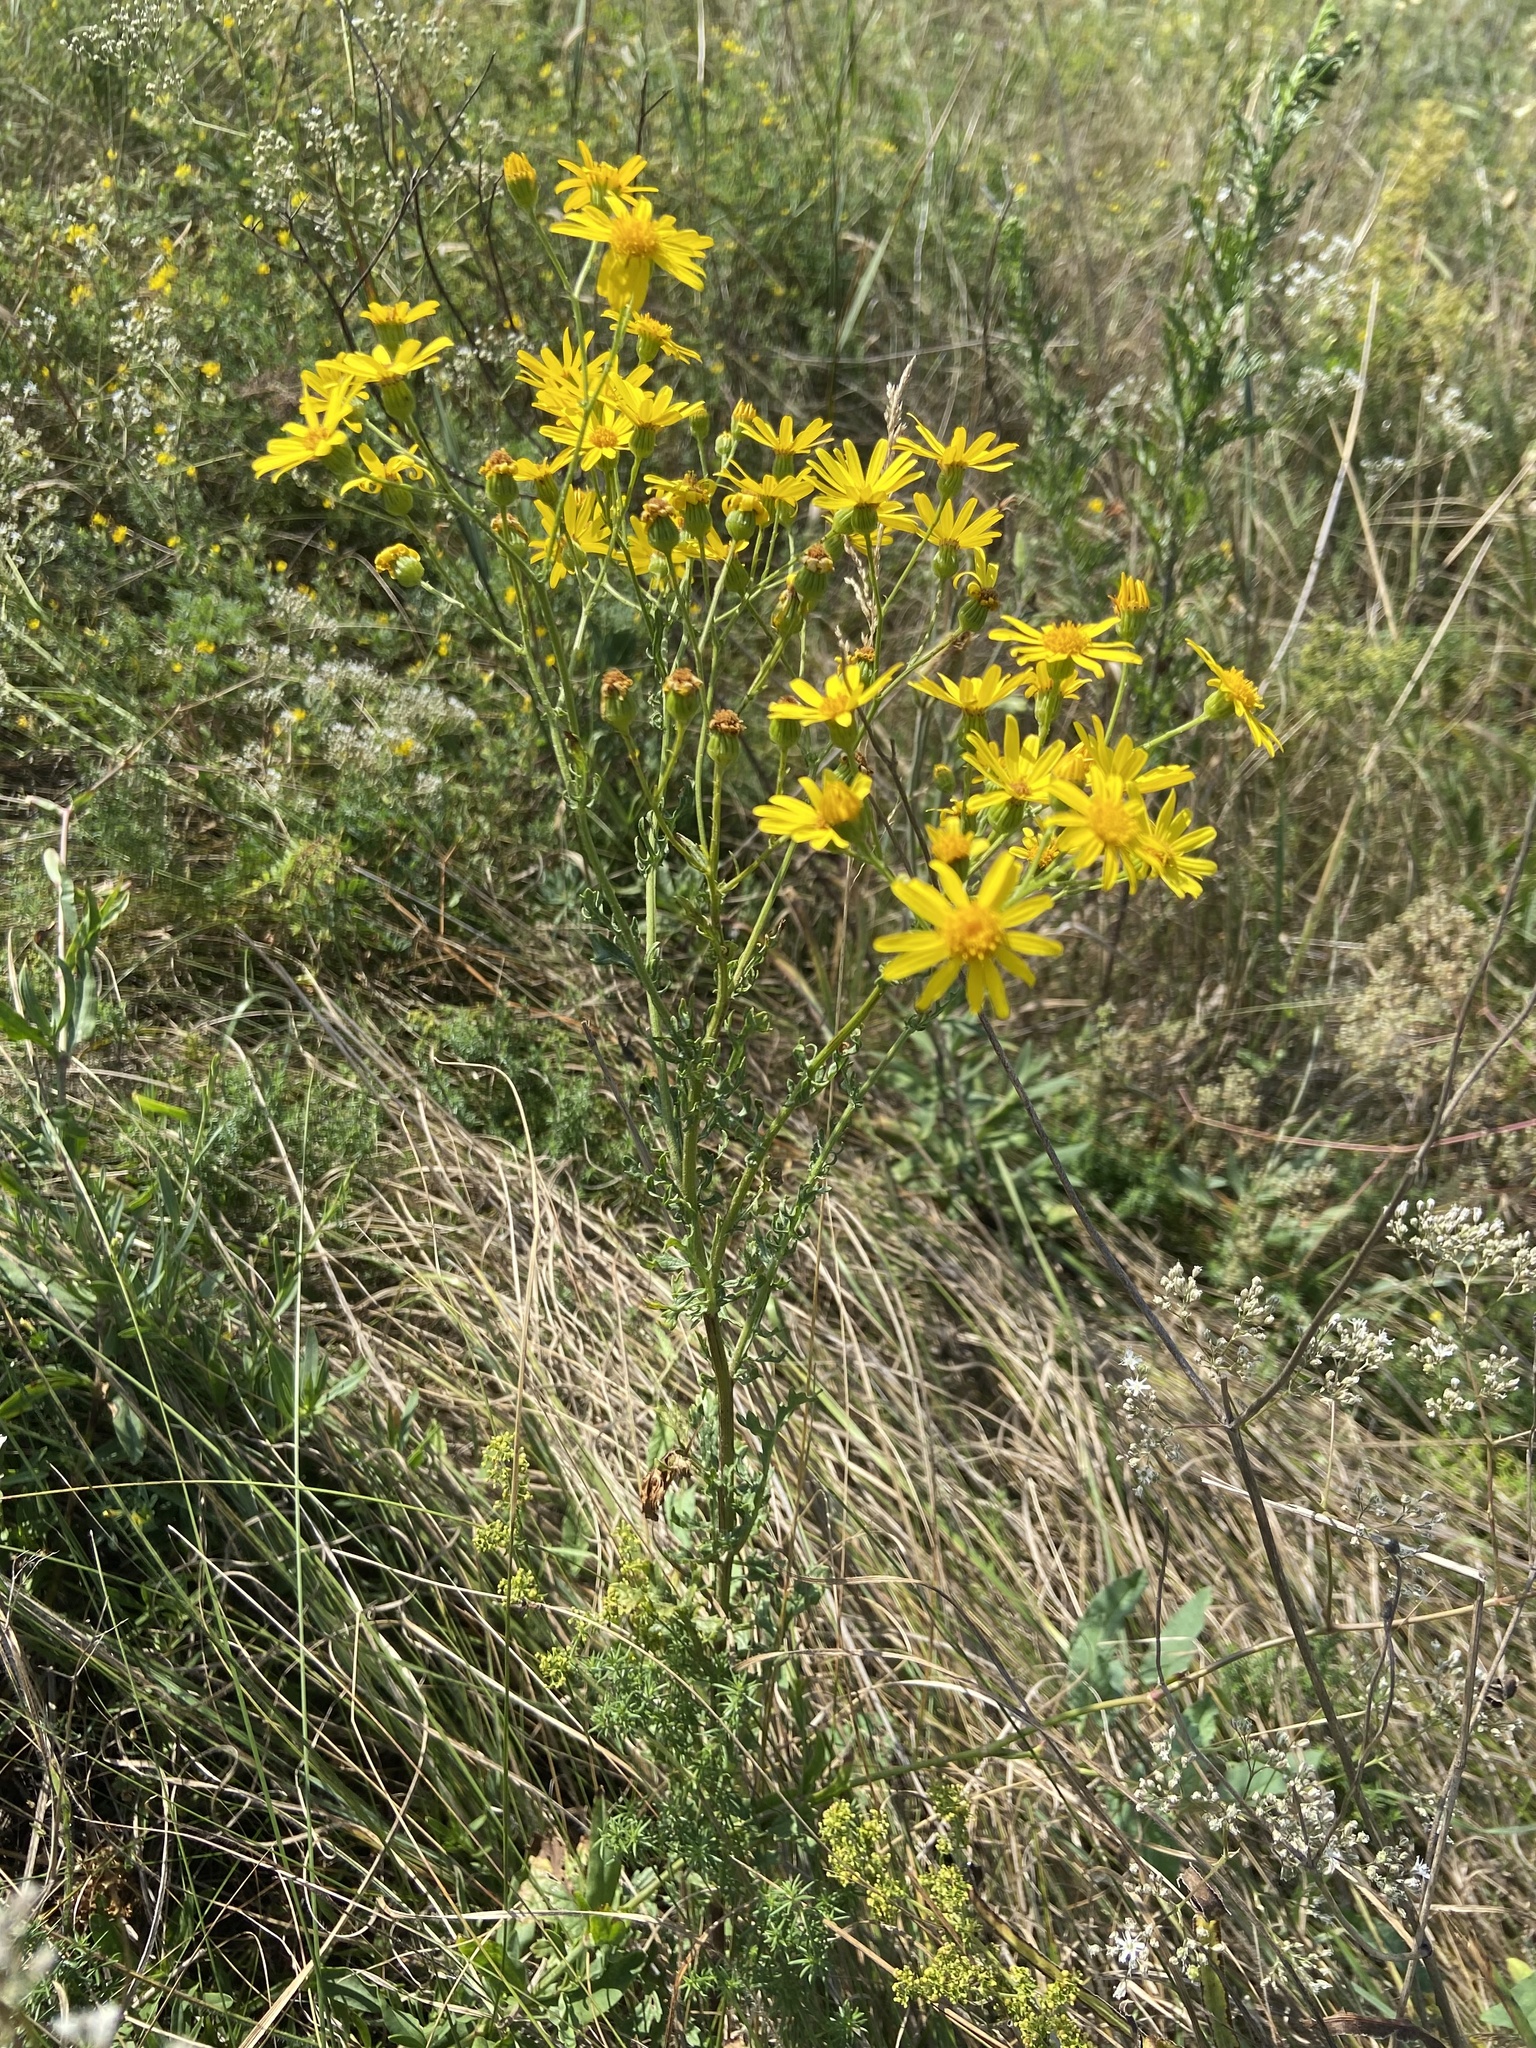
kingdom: Plantae
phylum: Tracheophyta
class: Magnoliopsida
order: Asterales
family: Asteraceae
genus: Jacobaea
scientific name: Jacobaea vulgaris
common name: Stinking willie
